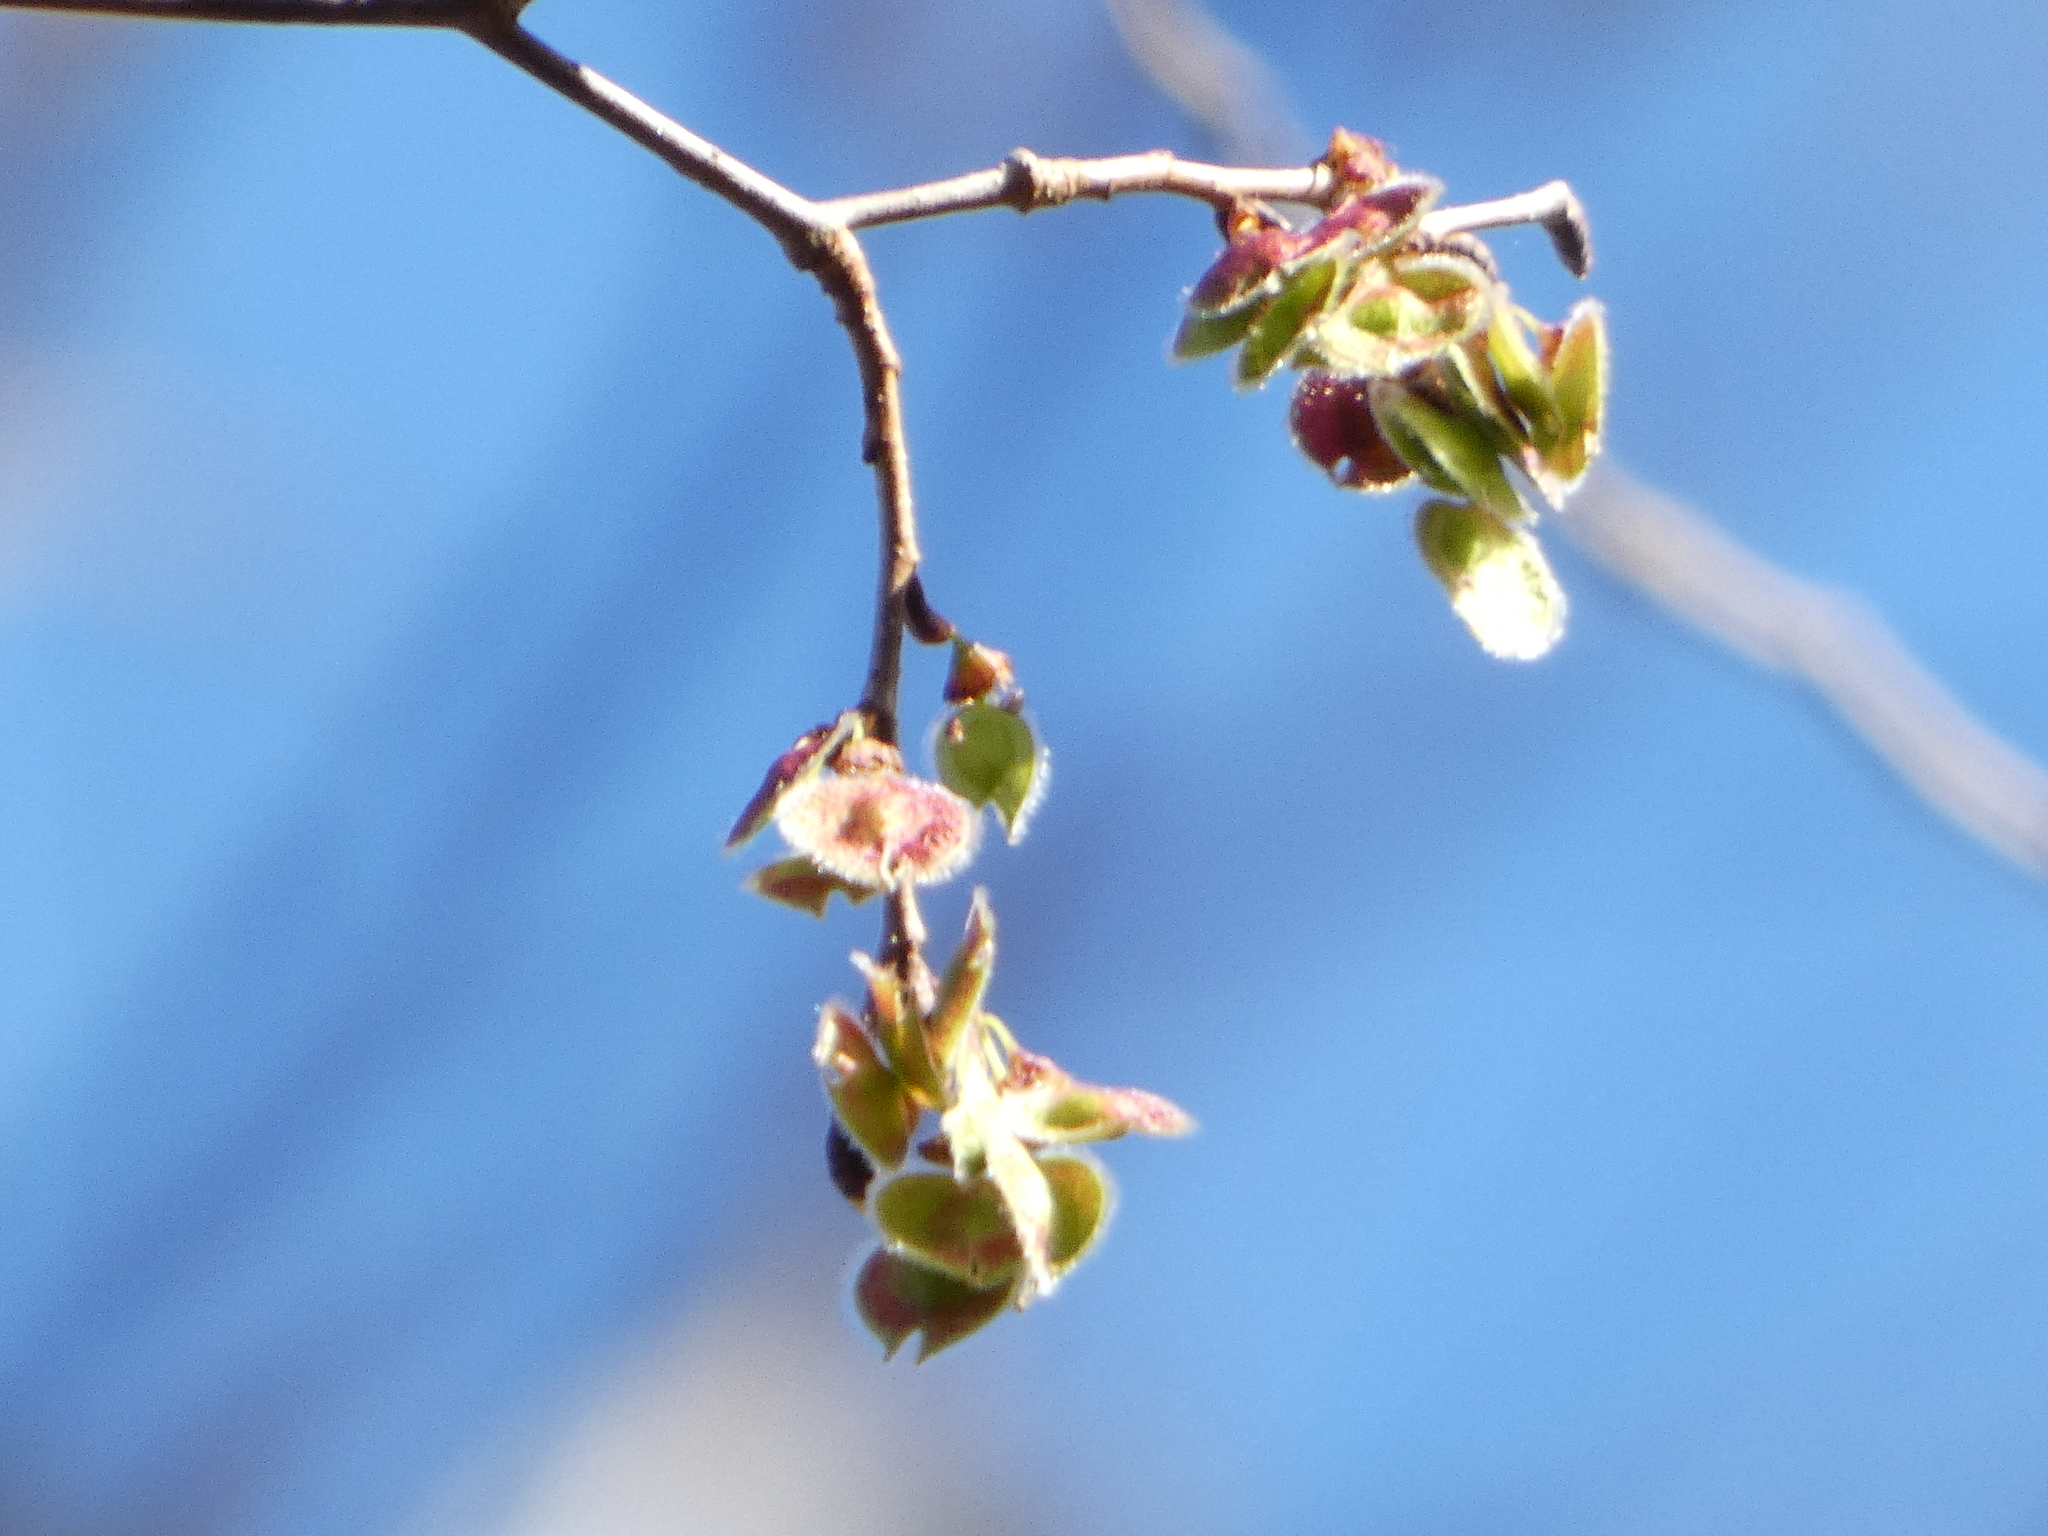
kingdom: Plantae
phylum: Tracheophyta
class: Magnoliopsida
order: Rosales
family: Ulmaceae
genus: Ulmus
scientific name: Ulmus americana
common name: American elm
